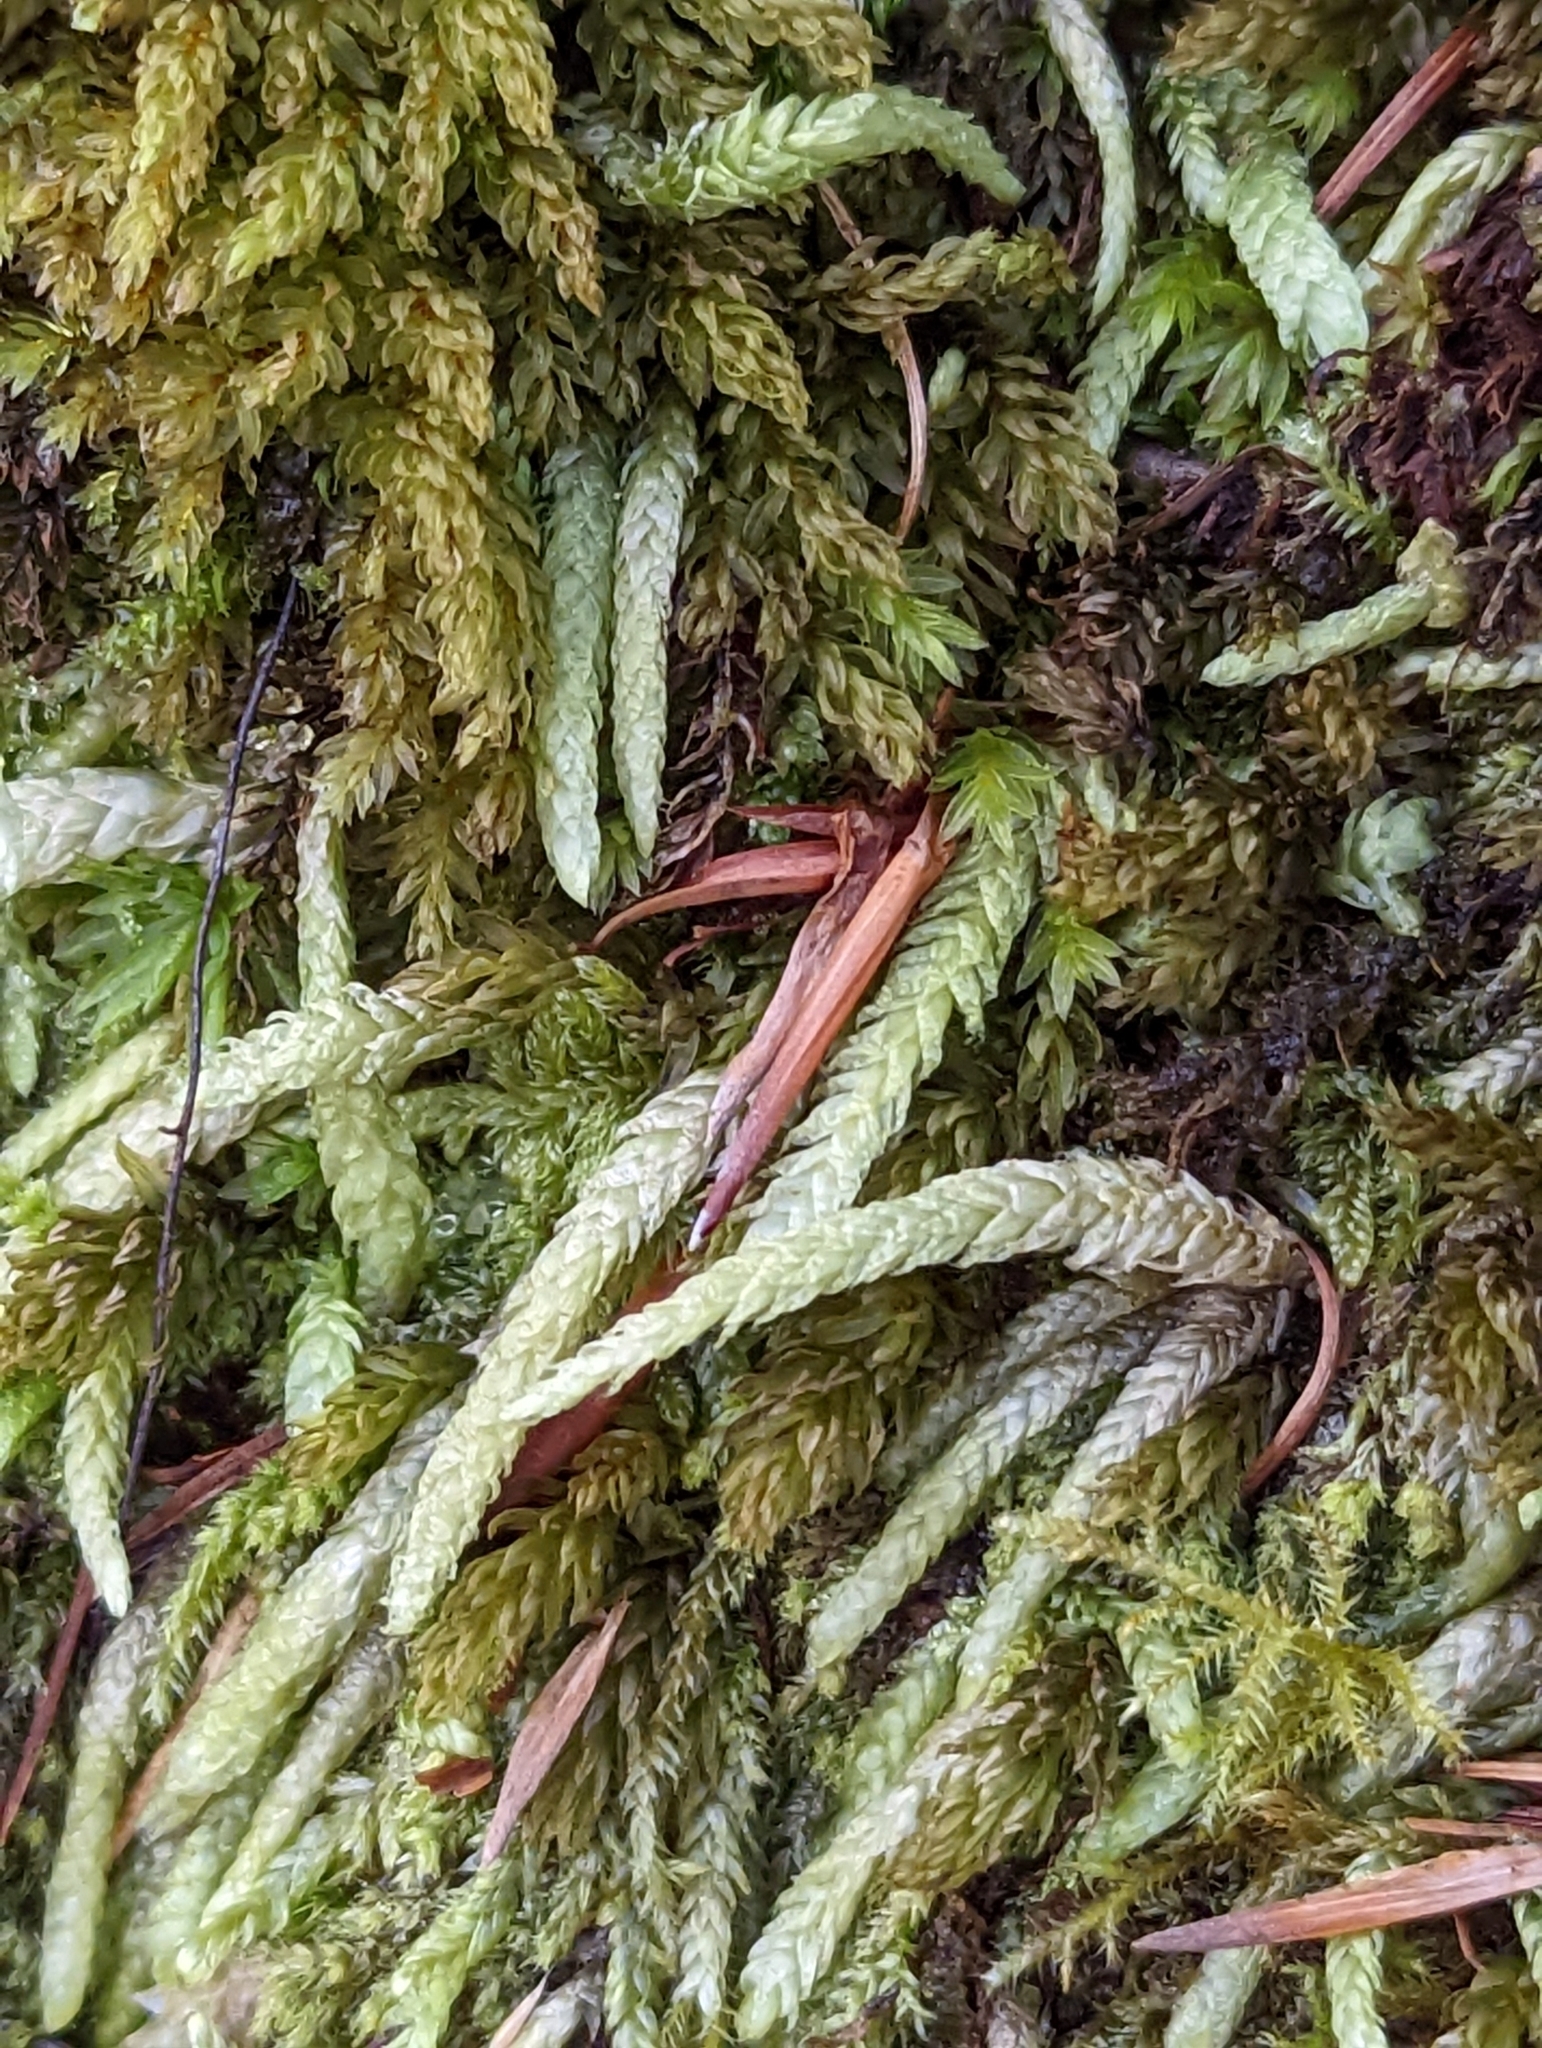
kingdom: Plantae
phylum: Bryophyta
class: Bryopsida
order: Hypnales
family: Plagiotheciaceae
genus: Plagiothecium
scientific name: Plagiothecium undulatum
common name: Waved silk-moss
